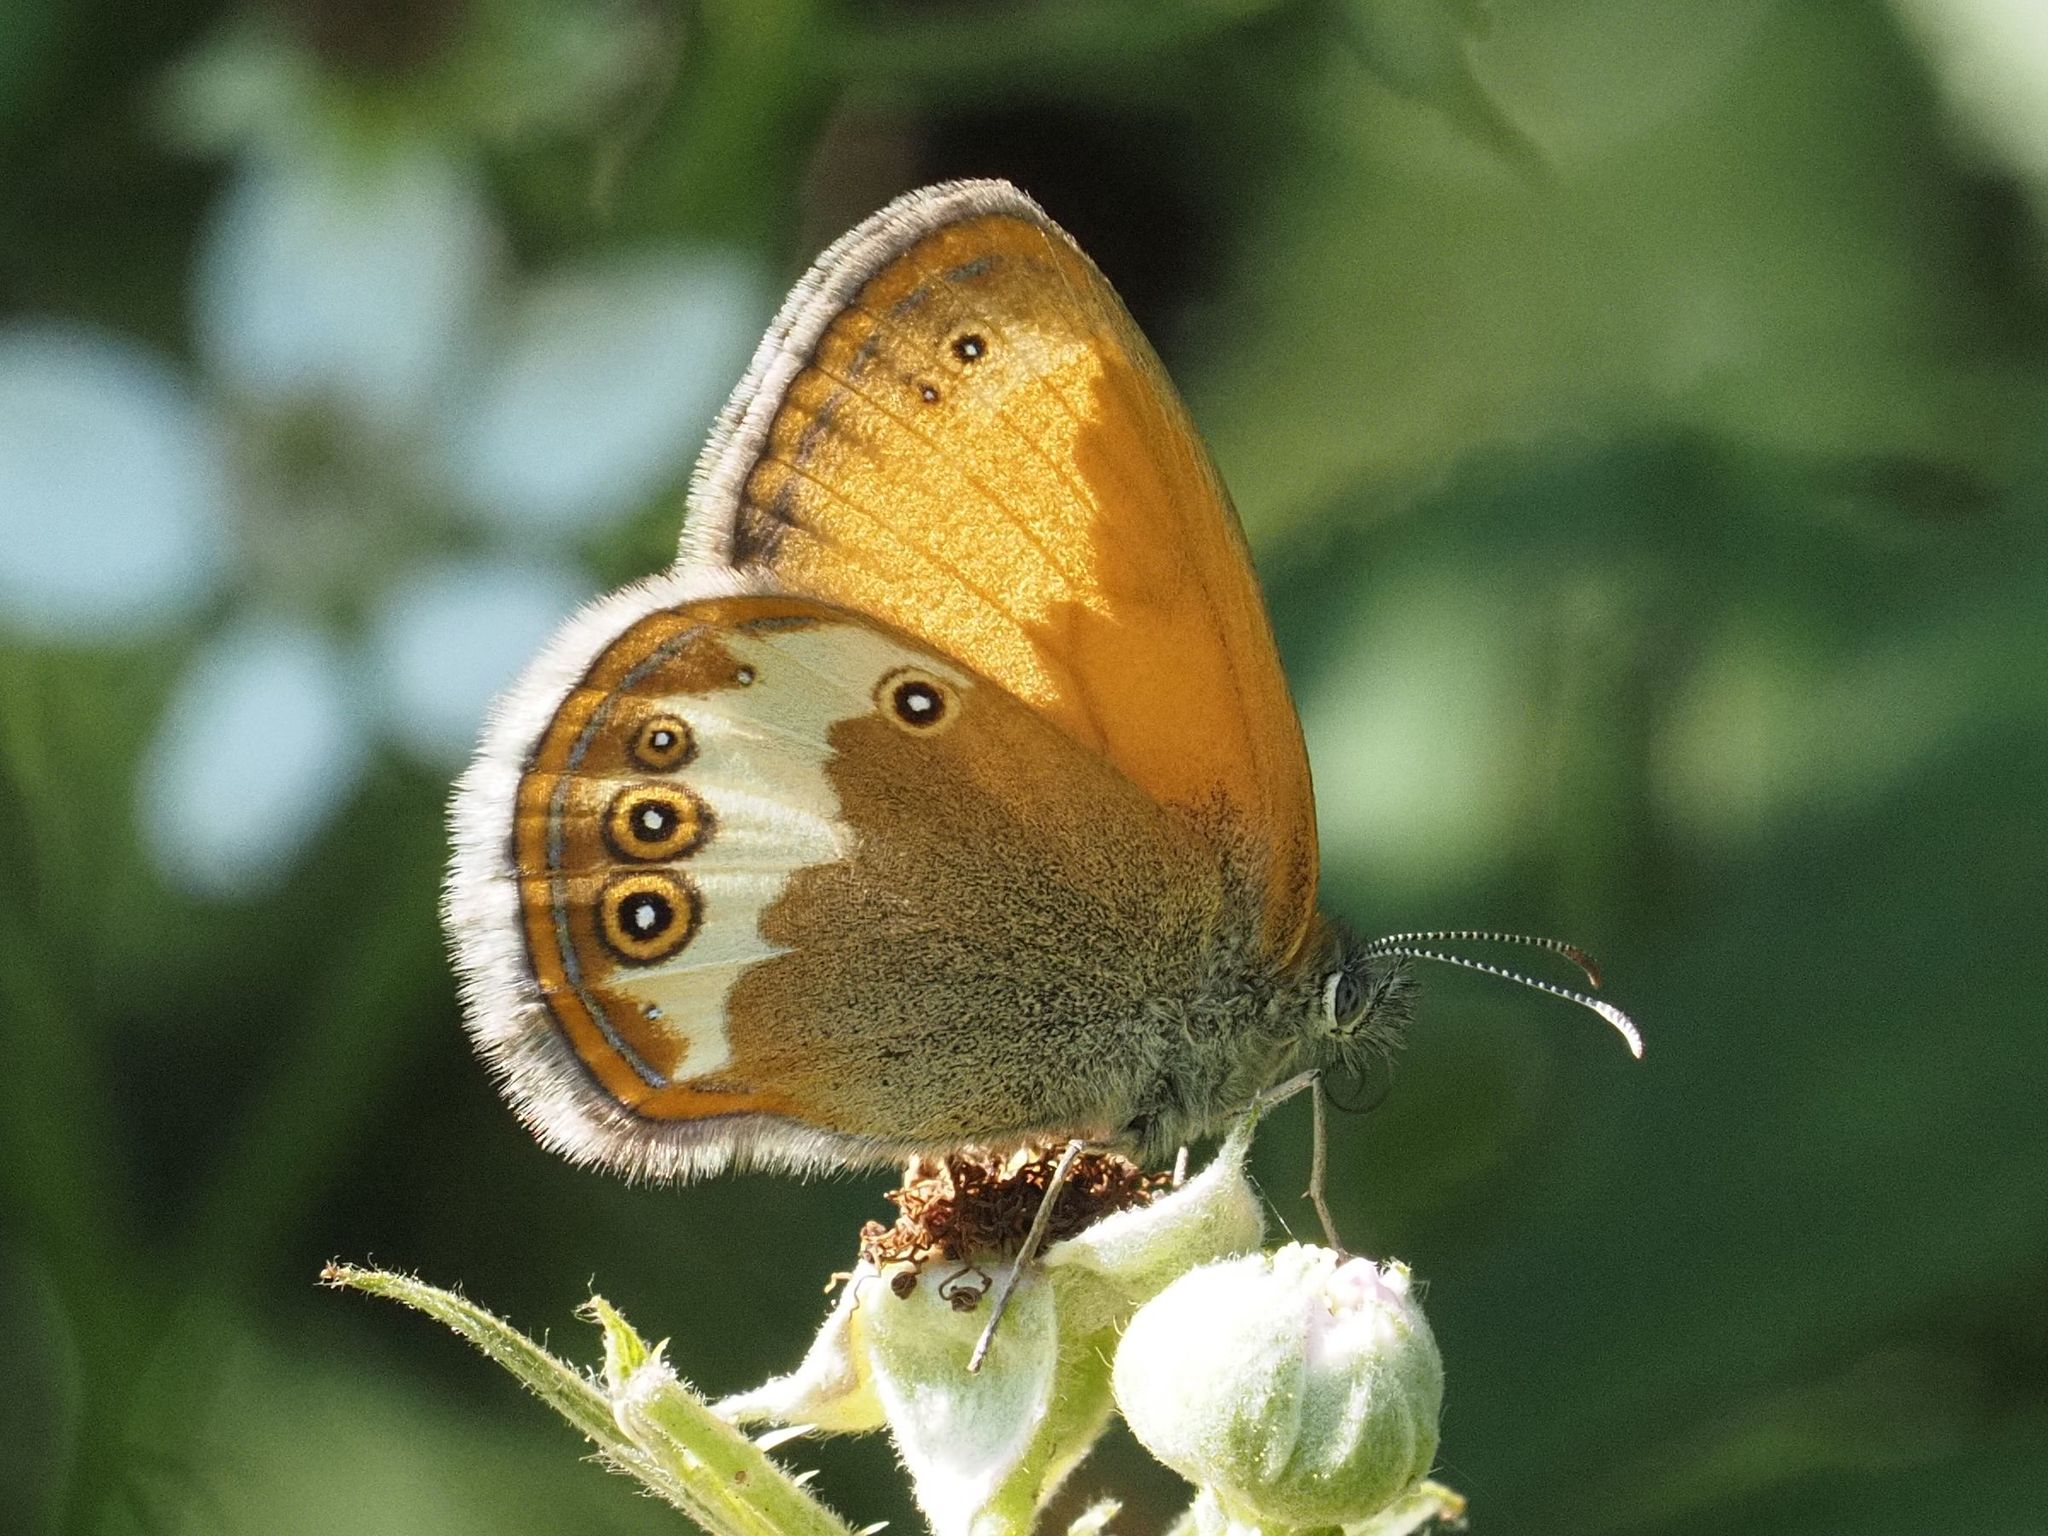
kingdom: Animalia
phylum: Arthropoda
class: Insecta
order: Lepidoptera
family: Nymphalidae
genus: Coenonympha
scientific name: Coenonympha arcania
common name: Pearly heath
